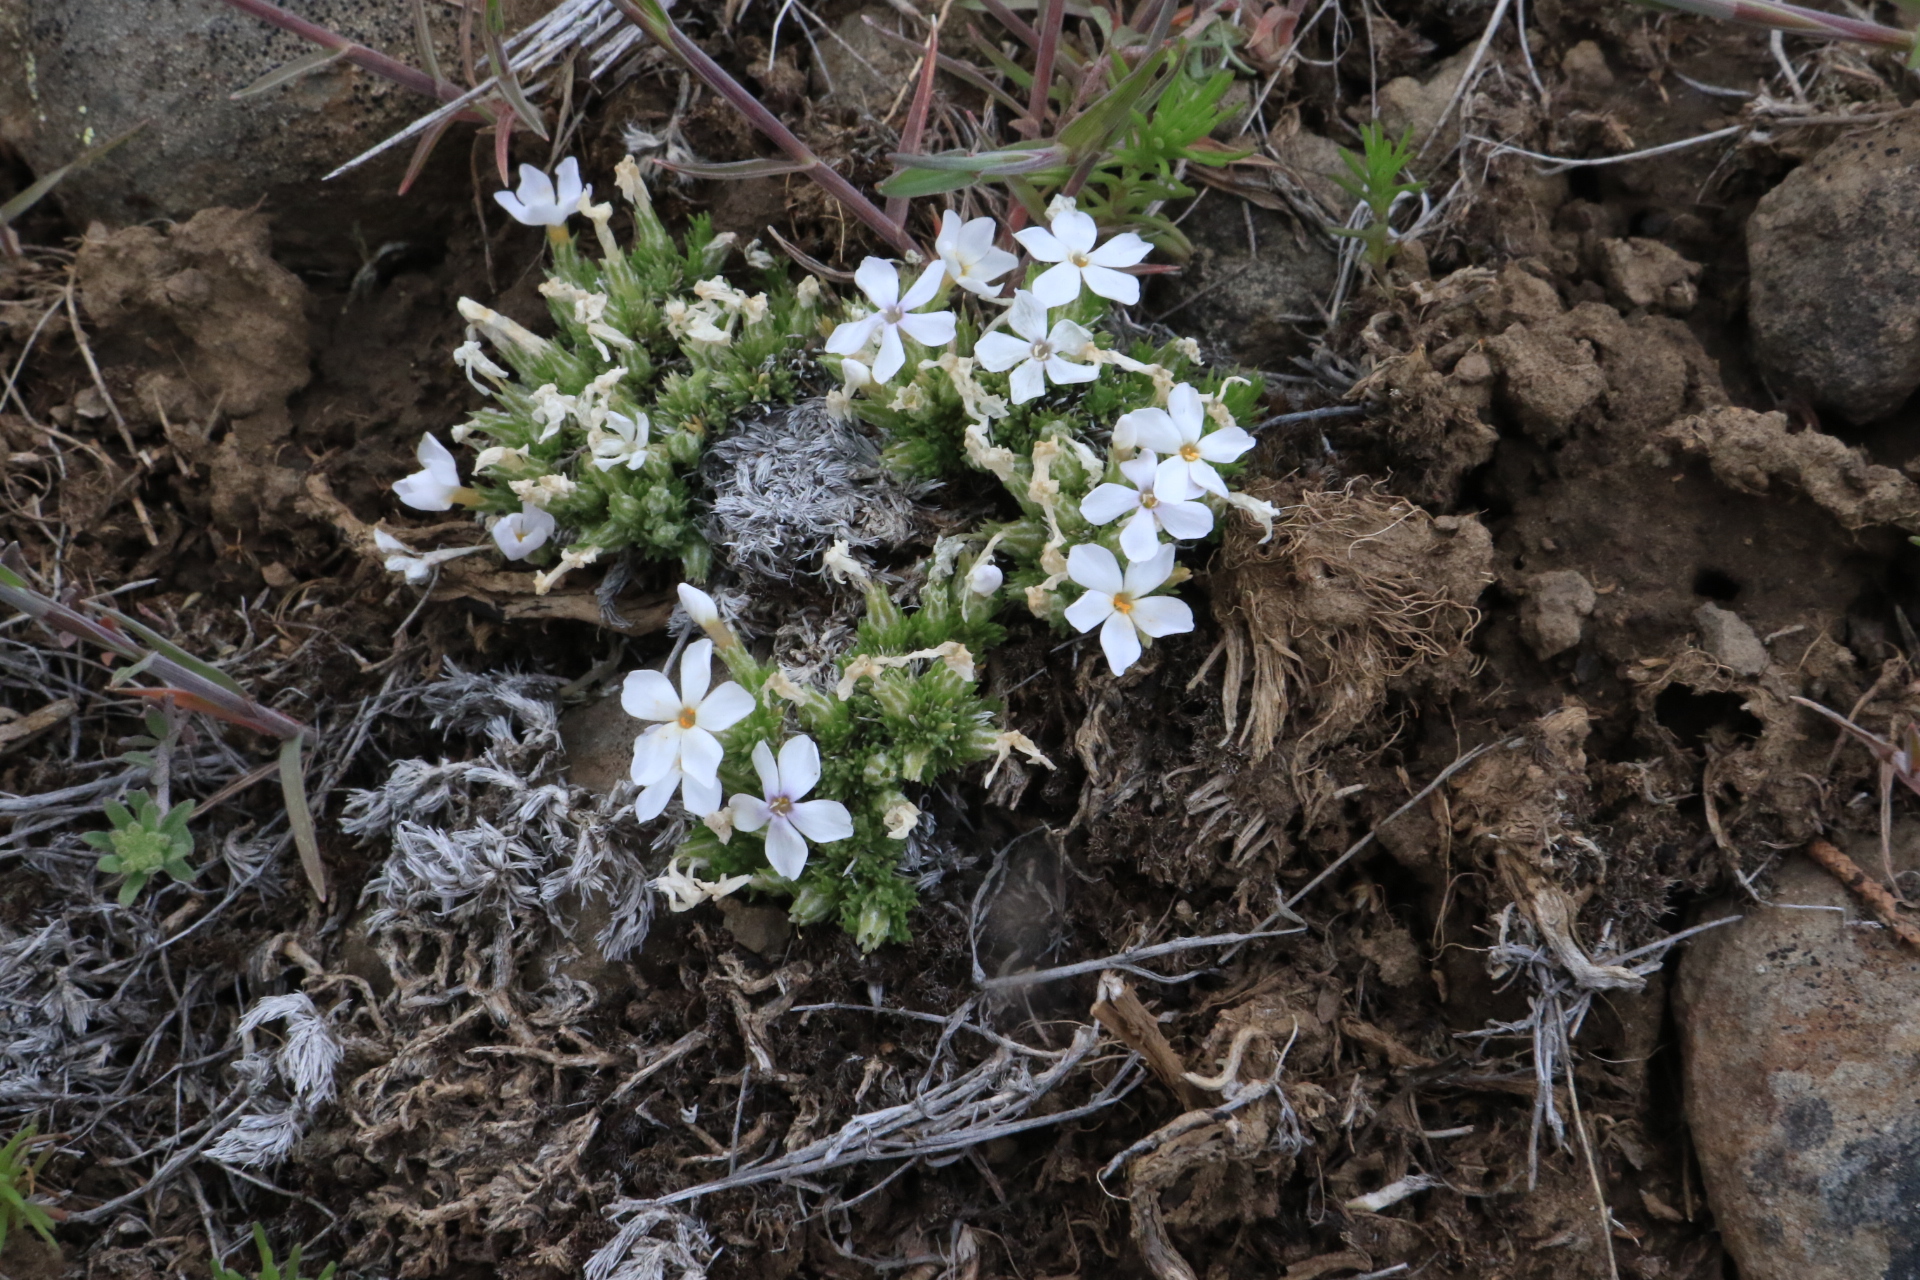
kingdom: Plantae
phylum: Tracheophyta
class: Magnoliopsida
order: Ericales
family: Polemoniaceae
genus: Phlox
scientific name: Phlox hoodii
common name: Moss phlox
